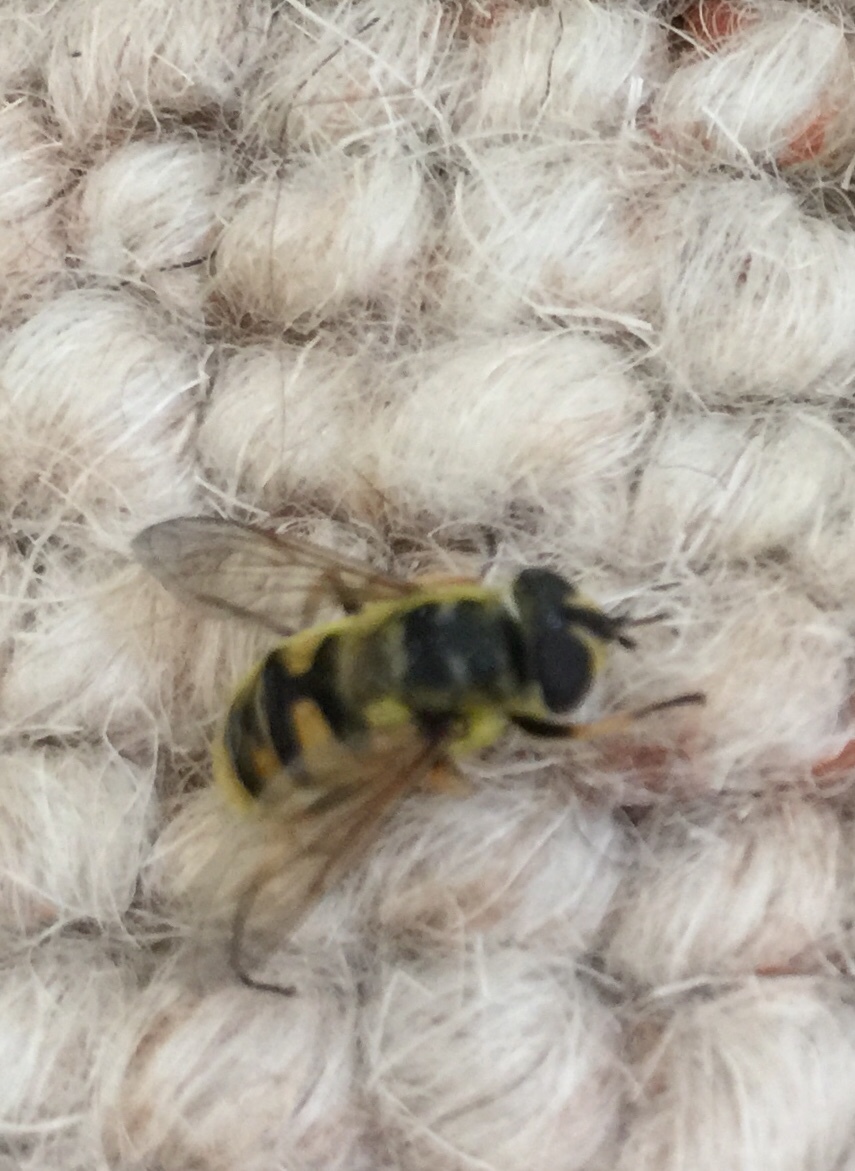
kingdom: Animalia
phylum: Arthropoda
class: Insecta
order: Diptera
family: Syrphidae
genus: Myathropa
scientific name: Myathropa florea
